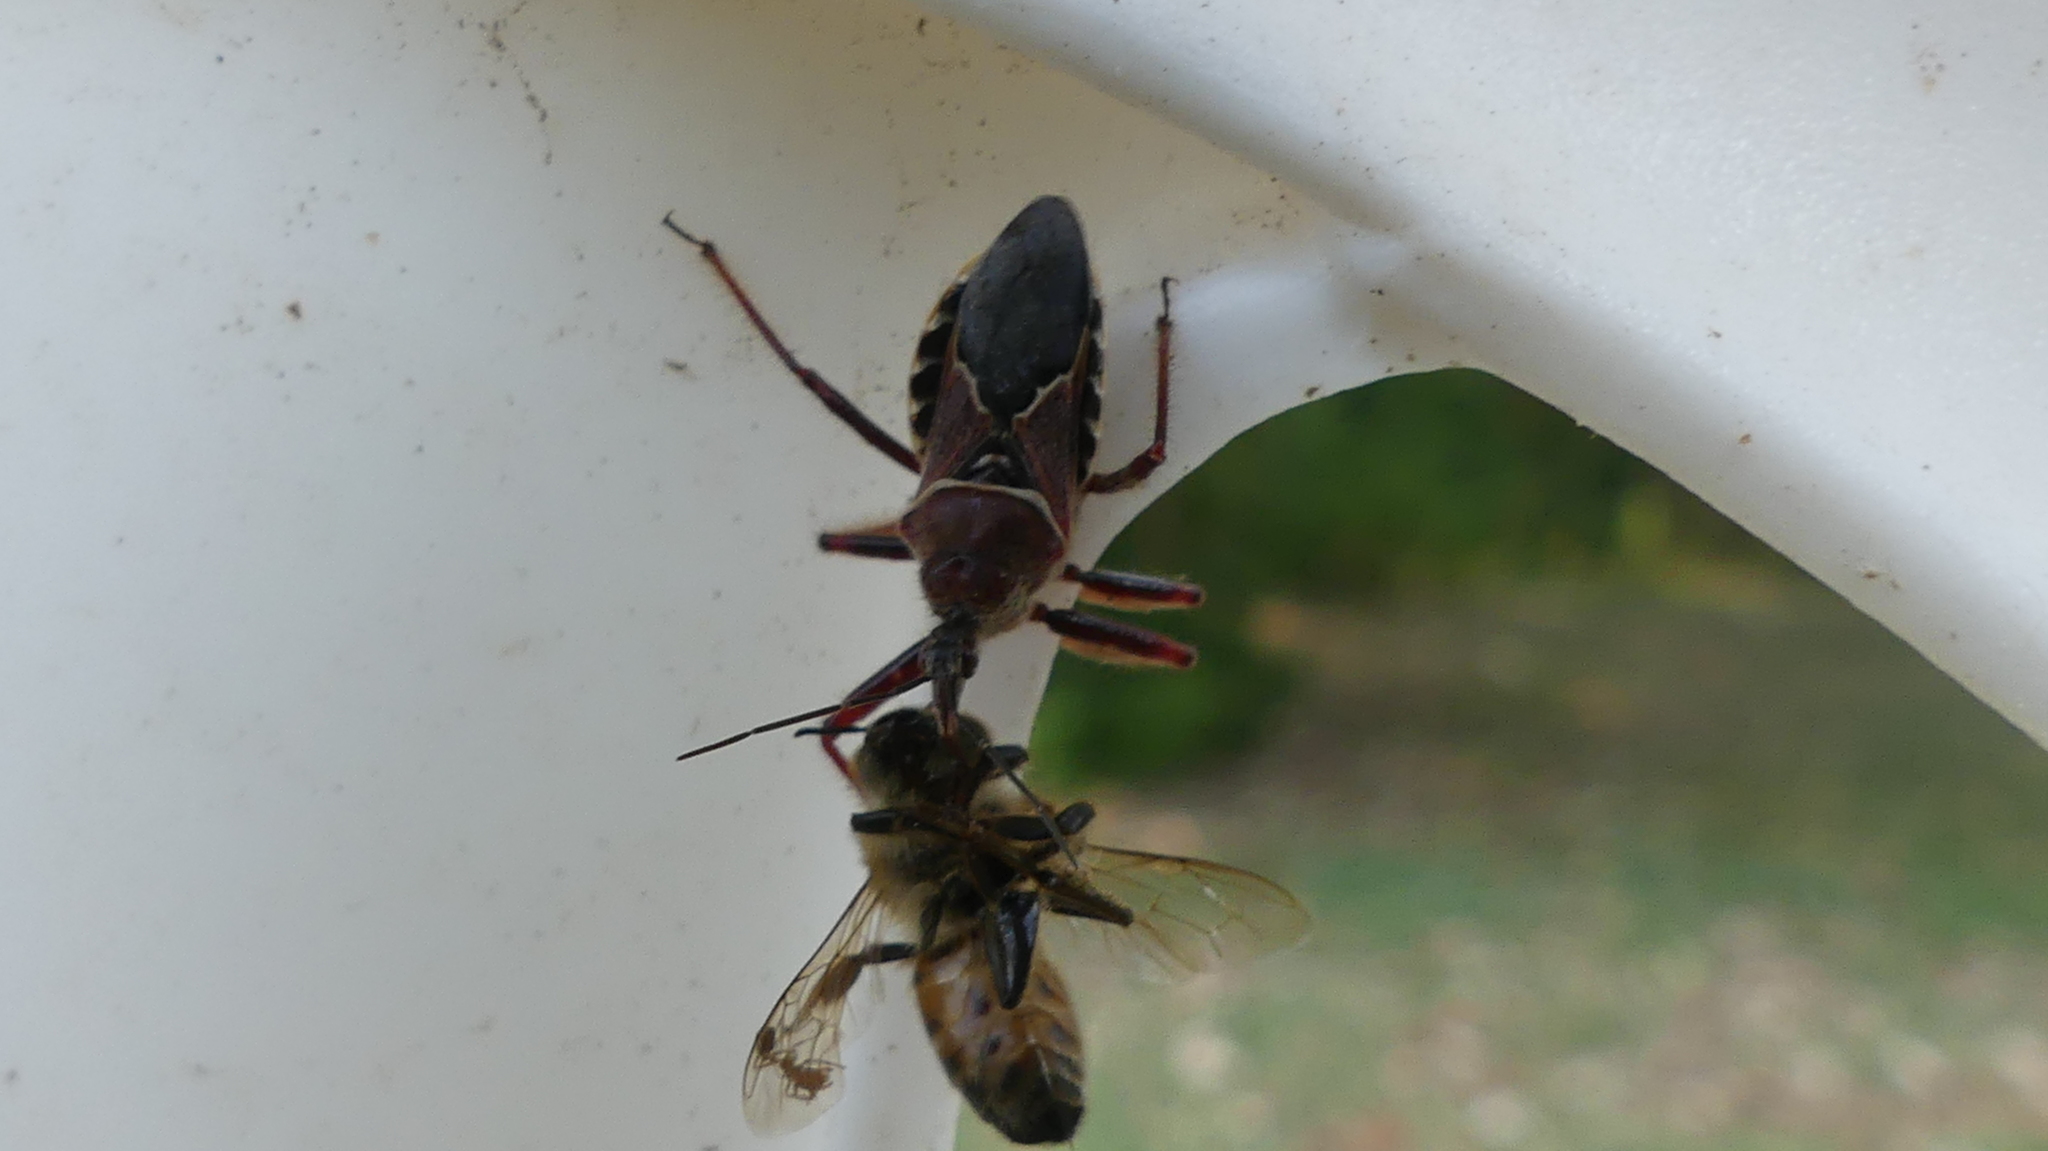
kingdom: Animalia
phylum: Arthropoda
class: Insecta
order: Hemiptera
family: Reduviidae
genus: Apiomerus
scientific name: Apiomerus spissipes
